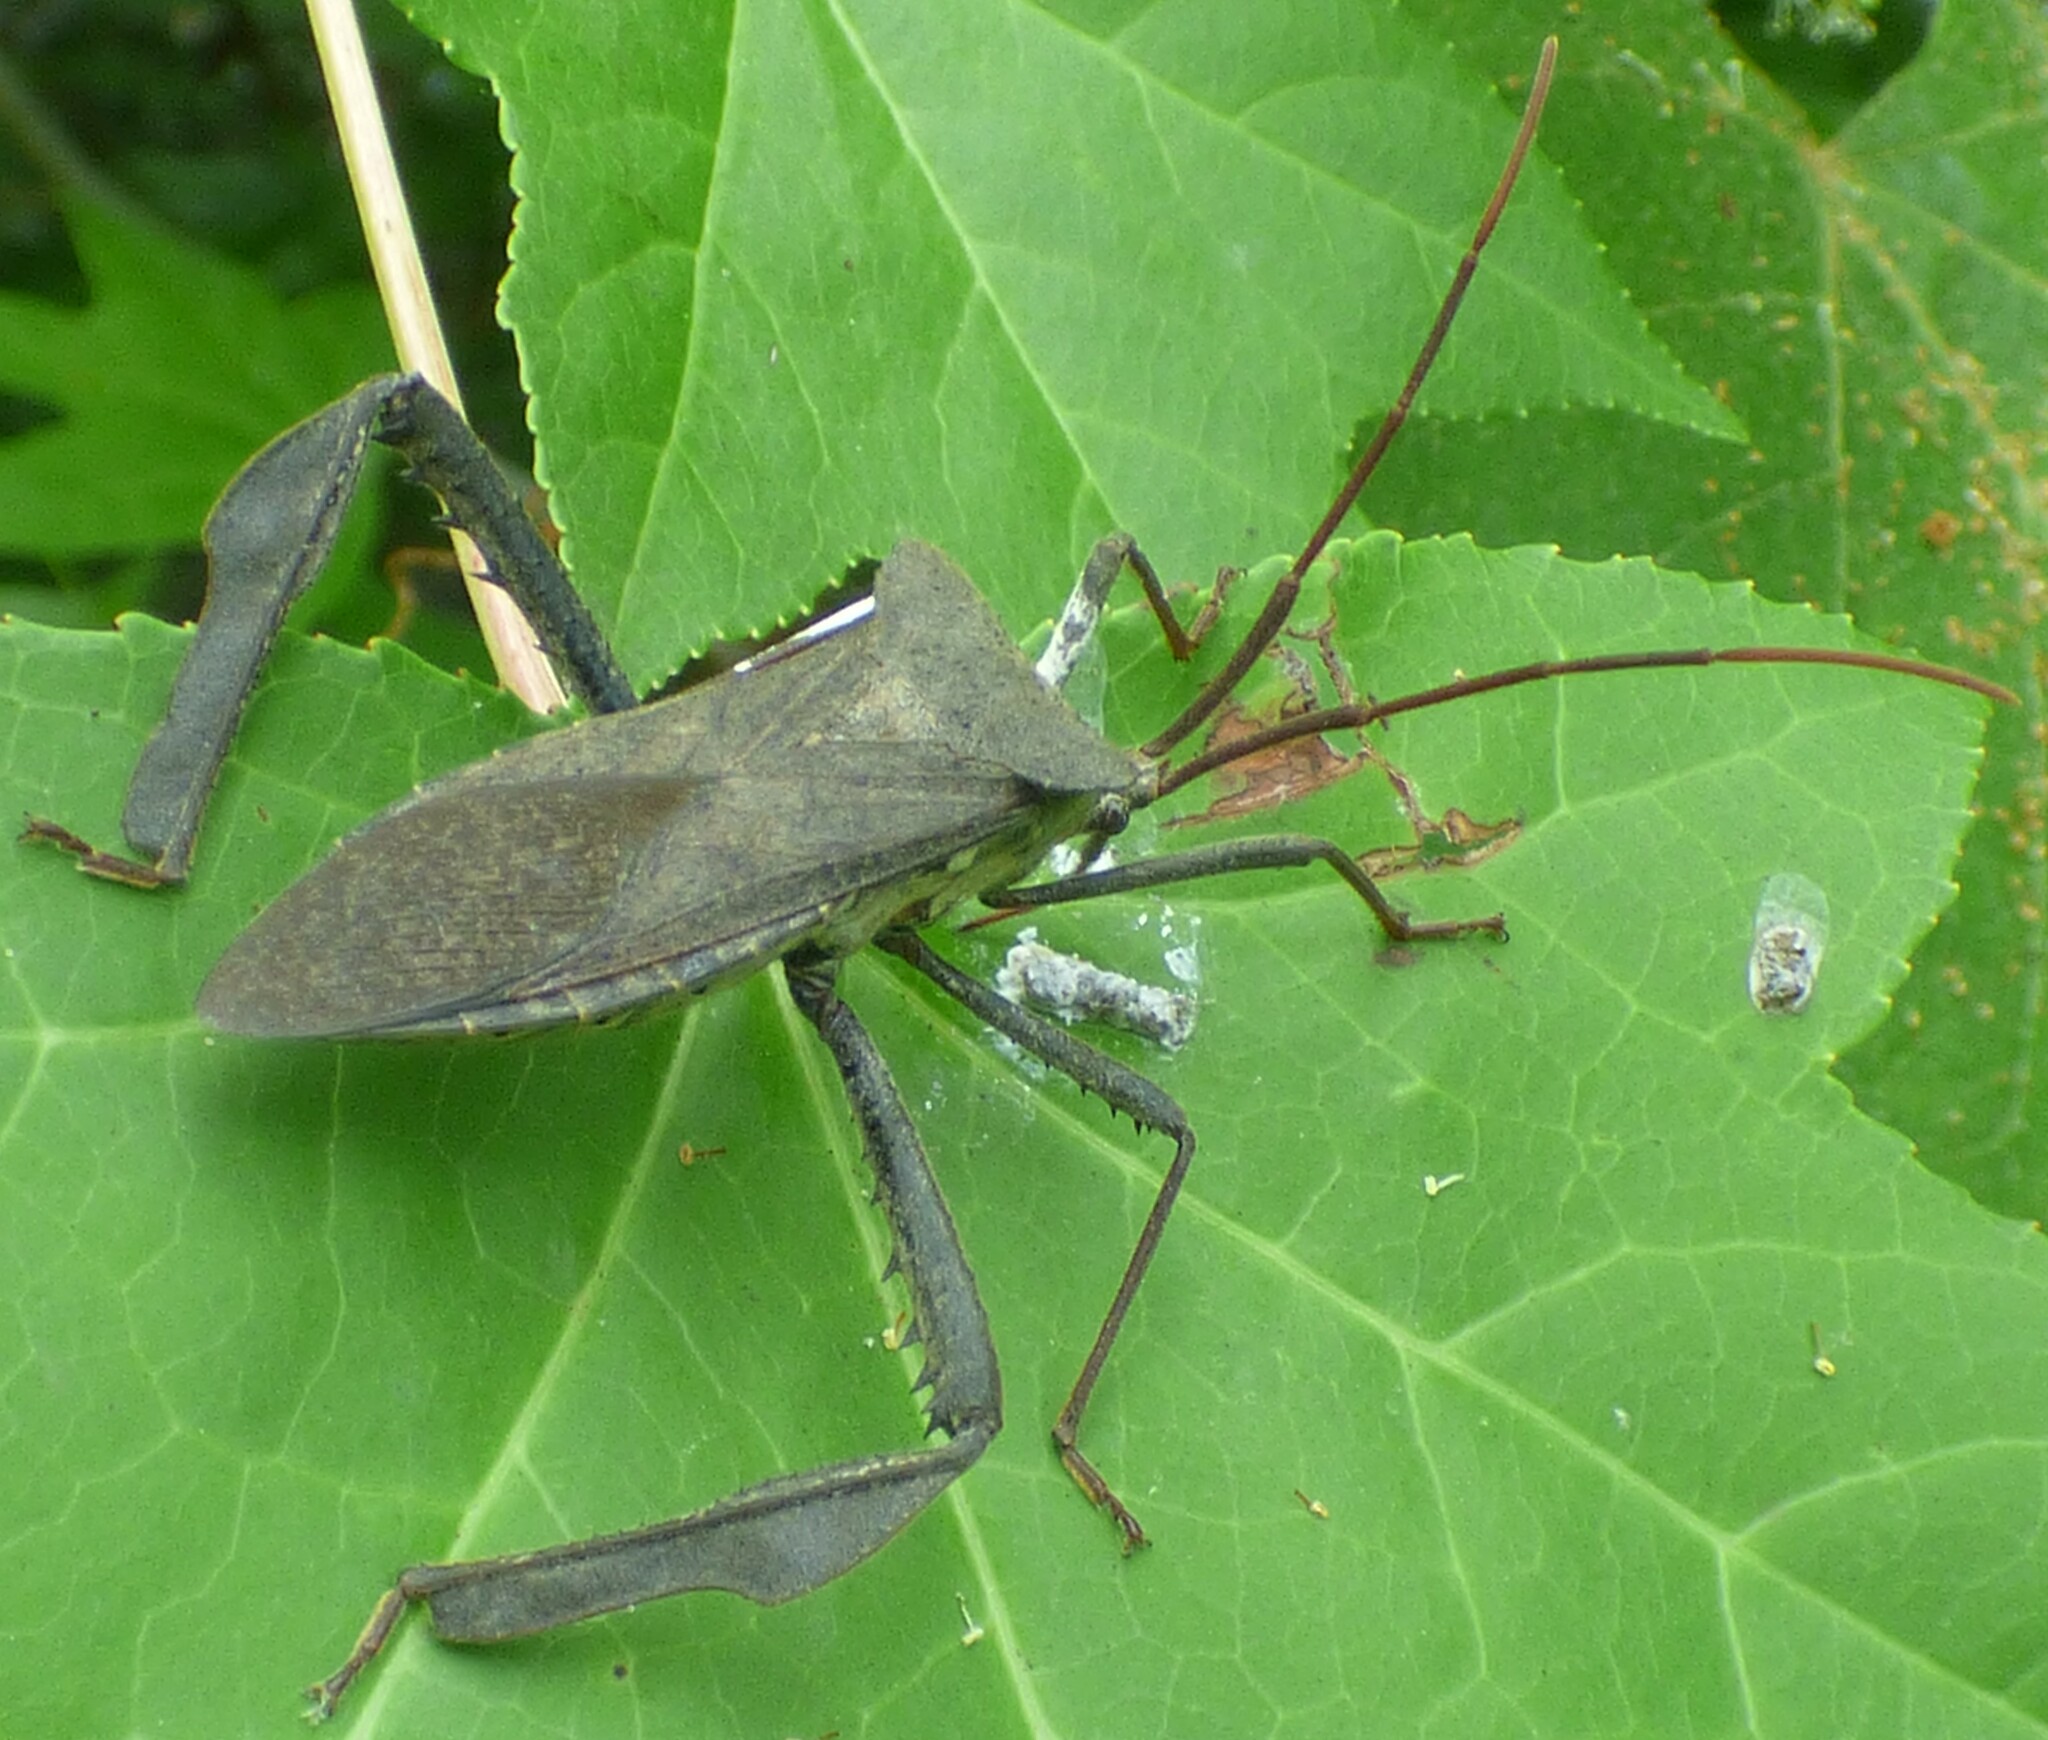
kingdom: Animalia
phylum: Arthropoda
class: Insecta
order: Hemiptera
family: Coreidae
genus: Acanthocephala
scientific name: Acanthocephala declivis
